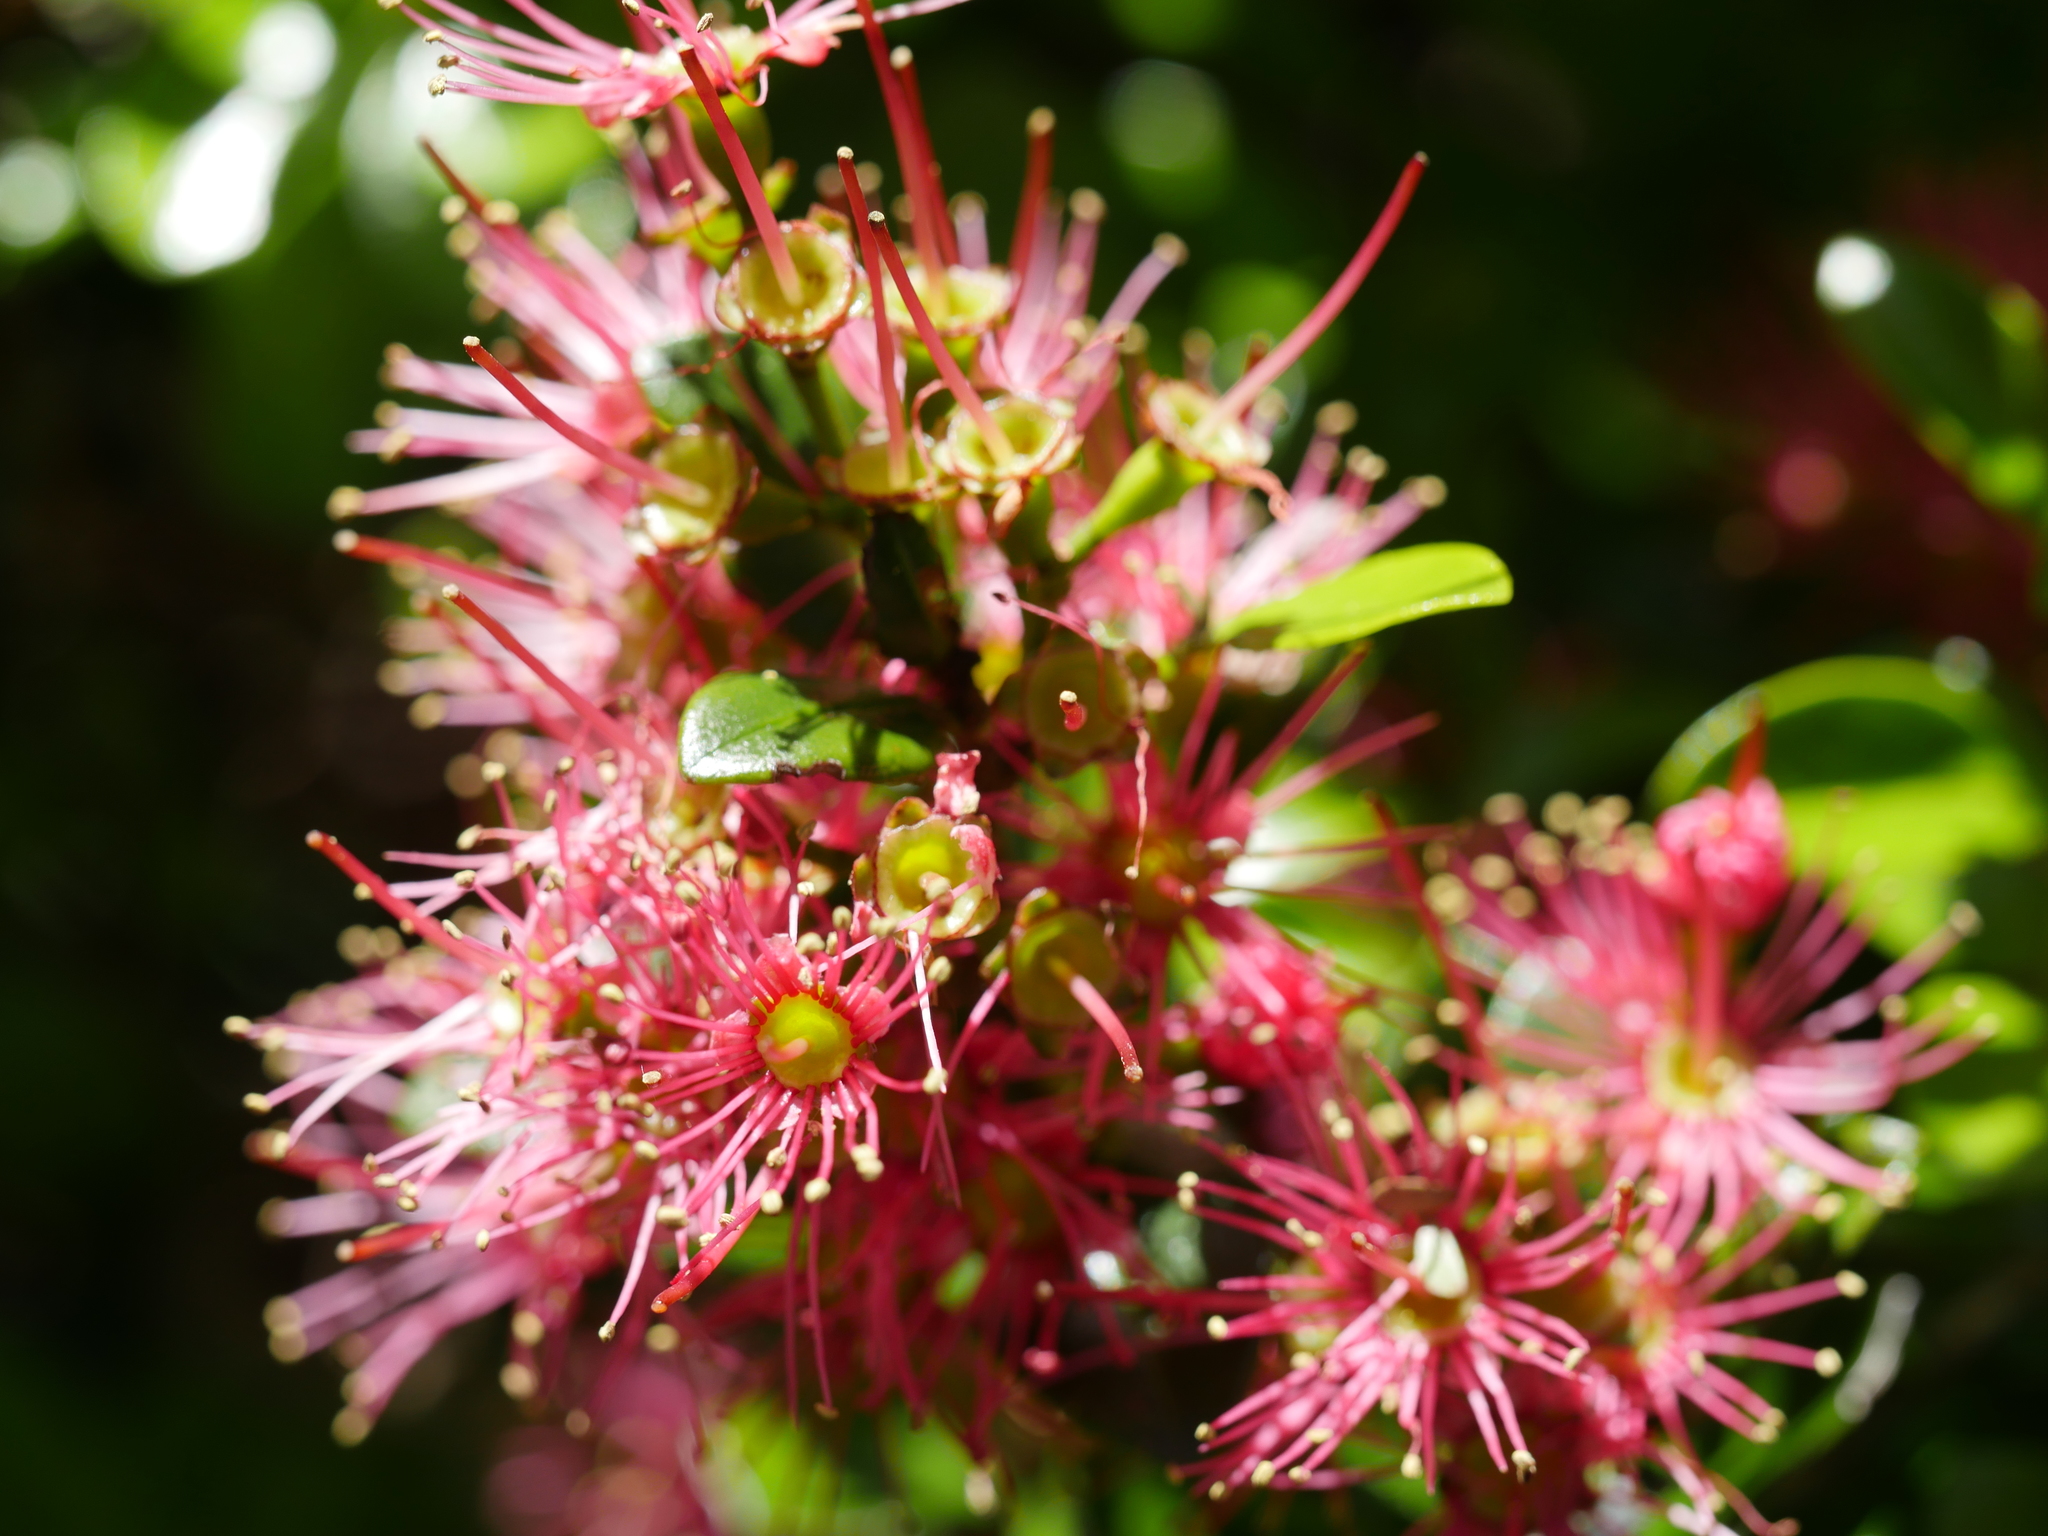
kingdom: Plantae
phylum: Tracheophyta
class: Magnoliopsida
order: Myrtales
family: Myrtaceae
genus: Metrosideros
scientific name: Metrosideros carminea
